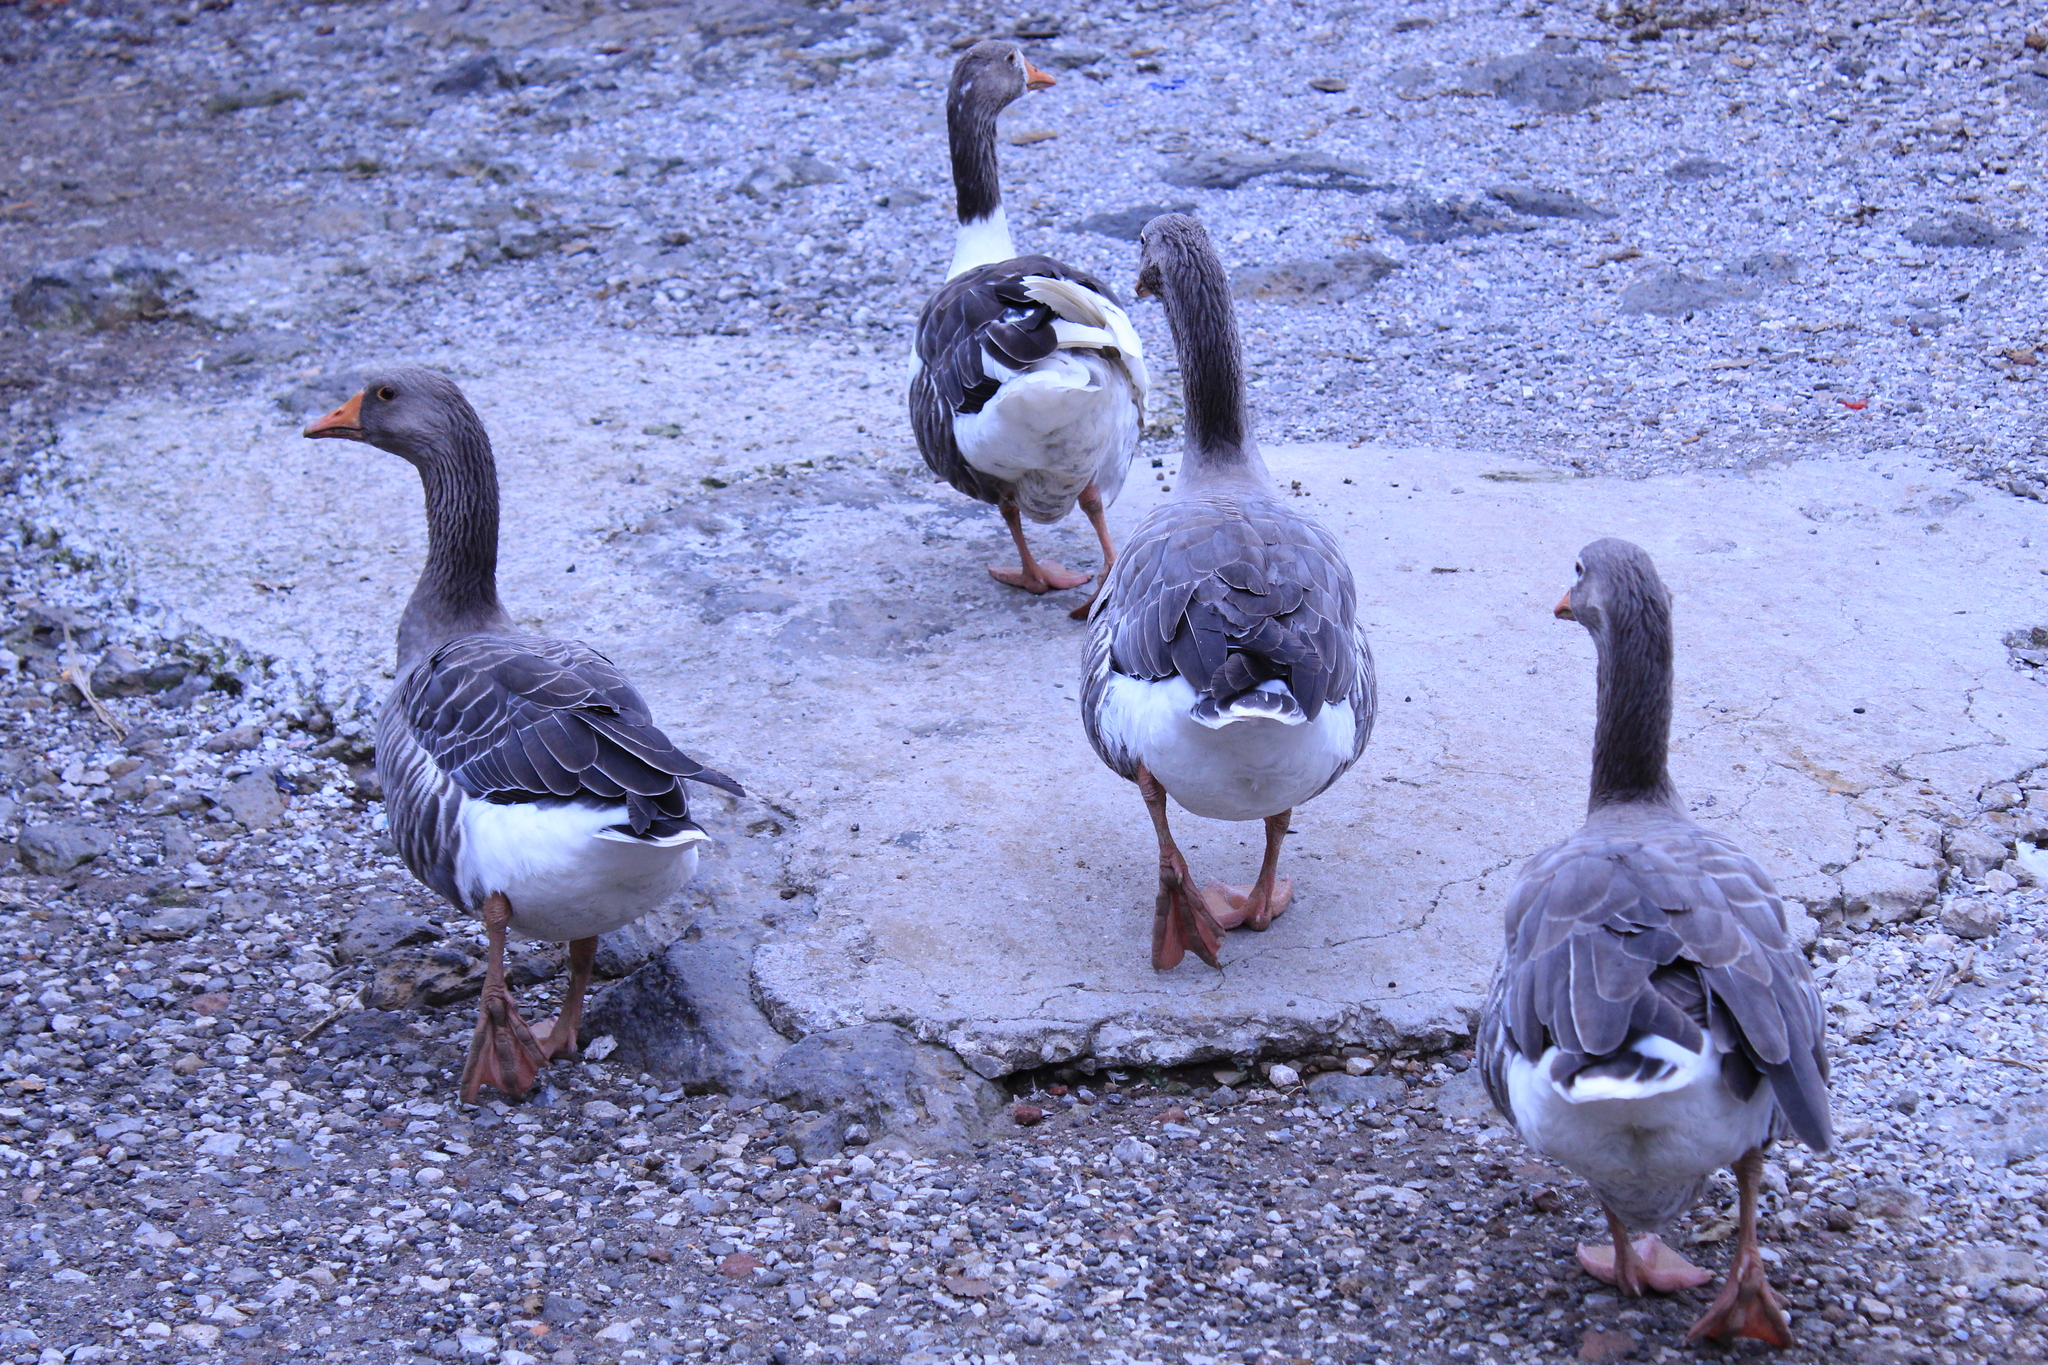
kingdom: Animalia
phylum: Chordata
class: Aves
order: Anseriformes
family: Anatidae
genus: Anser
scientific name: Anser anser
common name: Greylag goose
